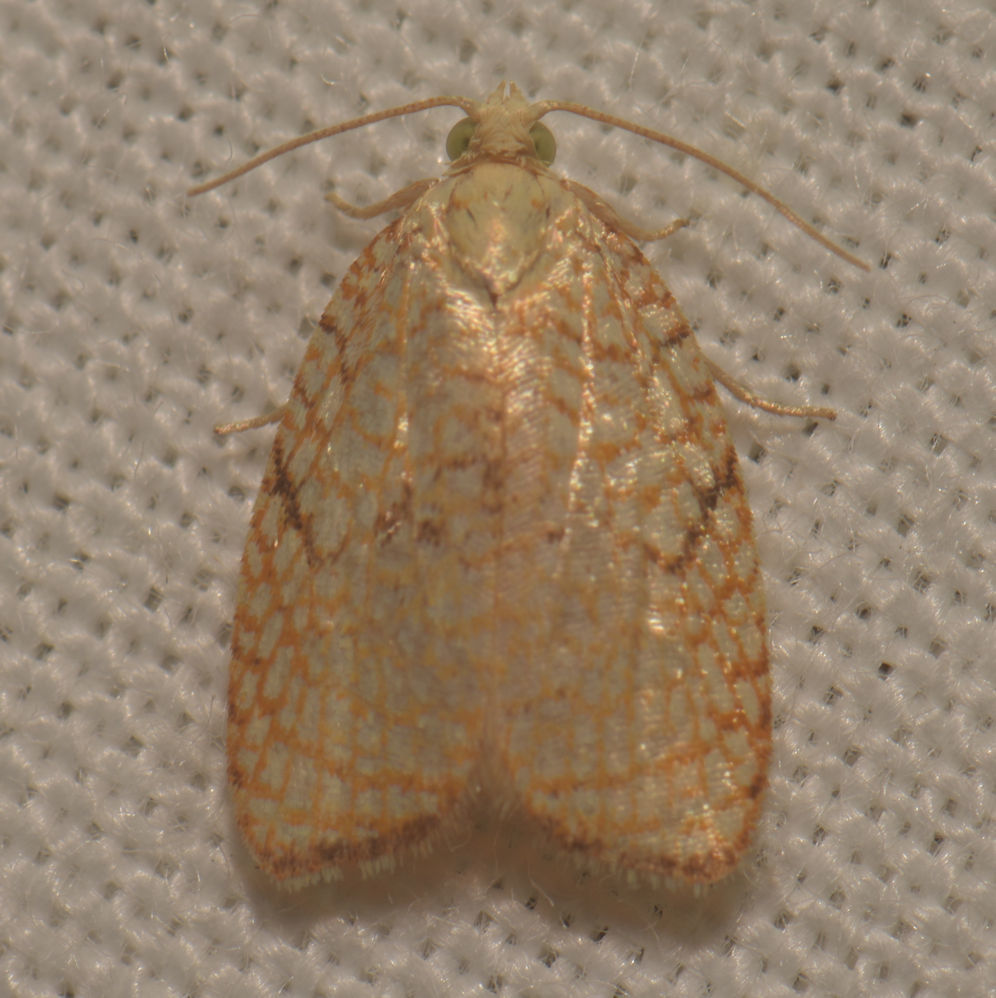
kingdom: Animalia
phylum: Arthropoda
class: Insecta
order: Lepidoptera
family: Tortricidae
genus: Acleris
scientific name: Acleris forsskaleana
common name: Maple button
